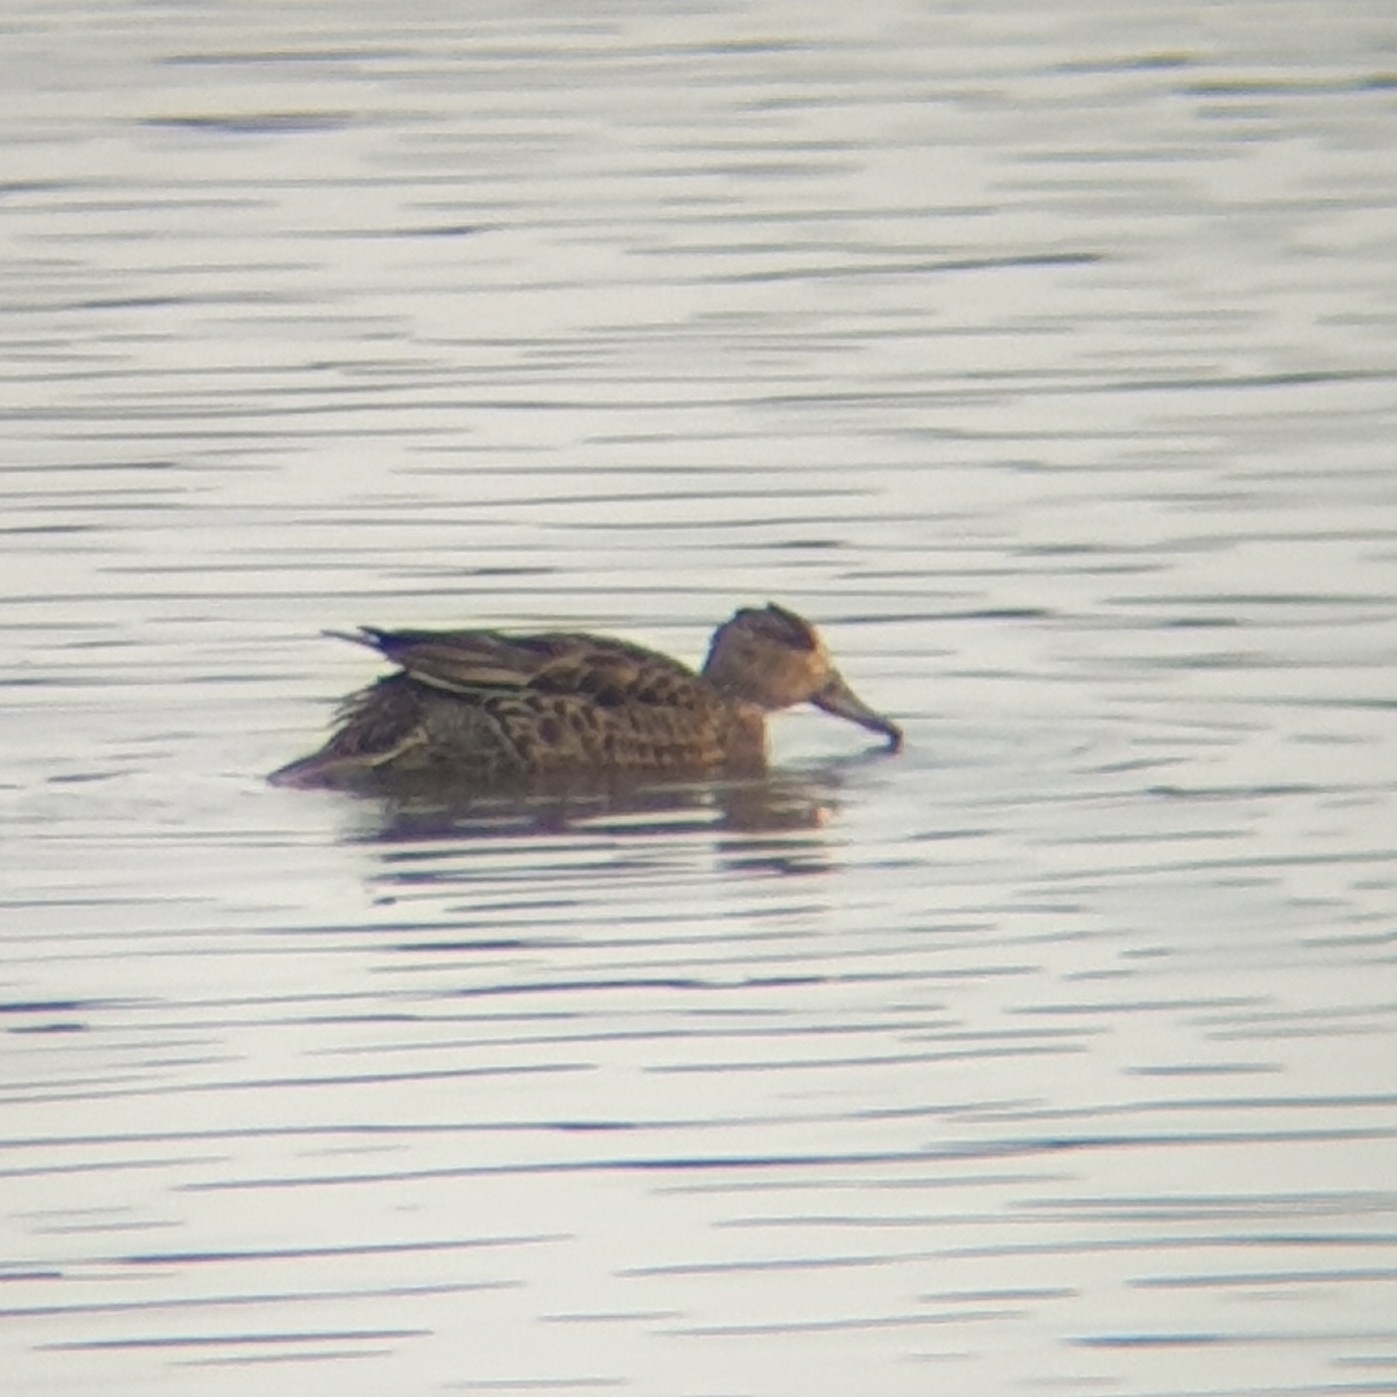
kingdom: Animalia
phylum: Chordata
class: Aves
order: Anseriformes
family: Anatidae
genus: Anas
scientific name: Anas crecca
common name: Eurasian teal
